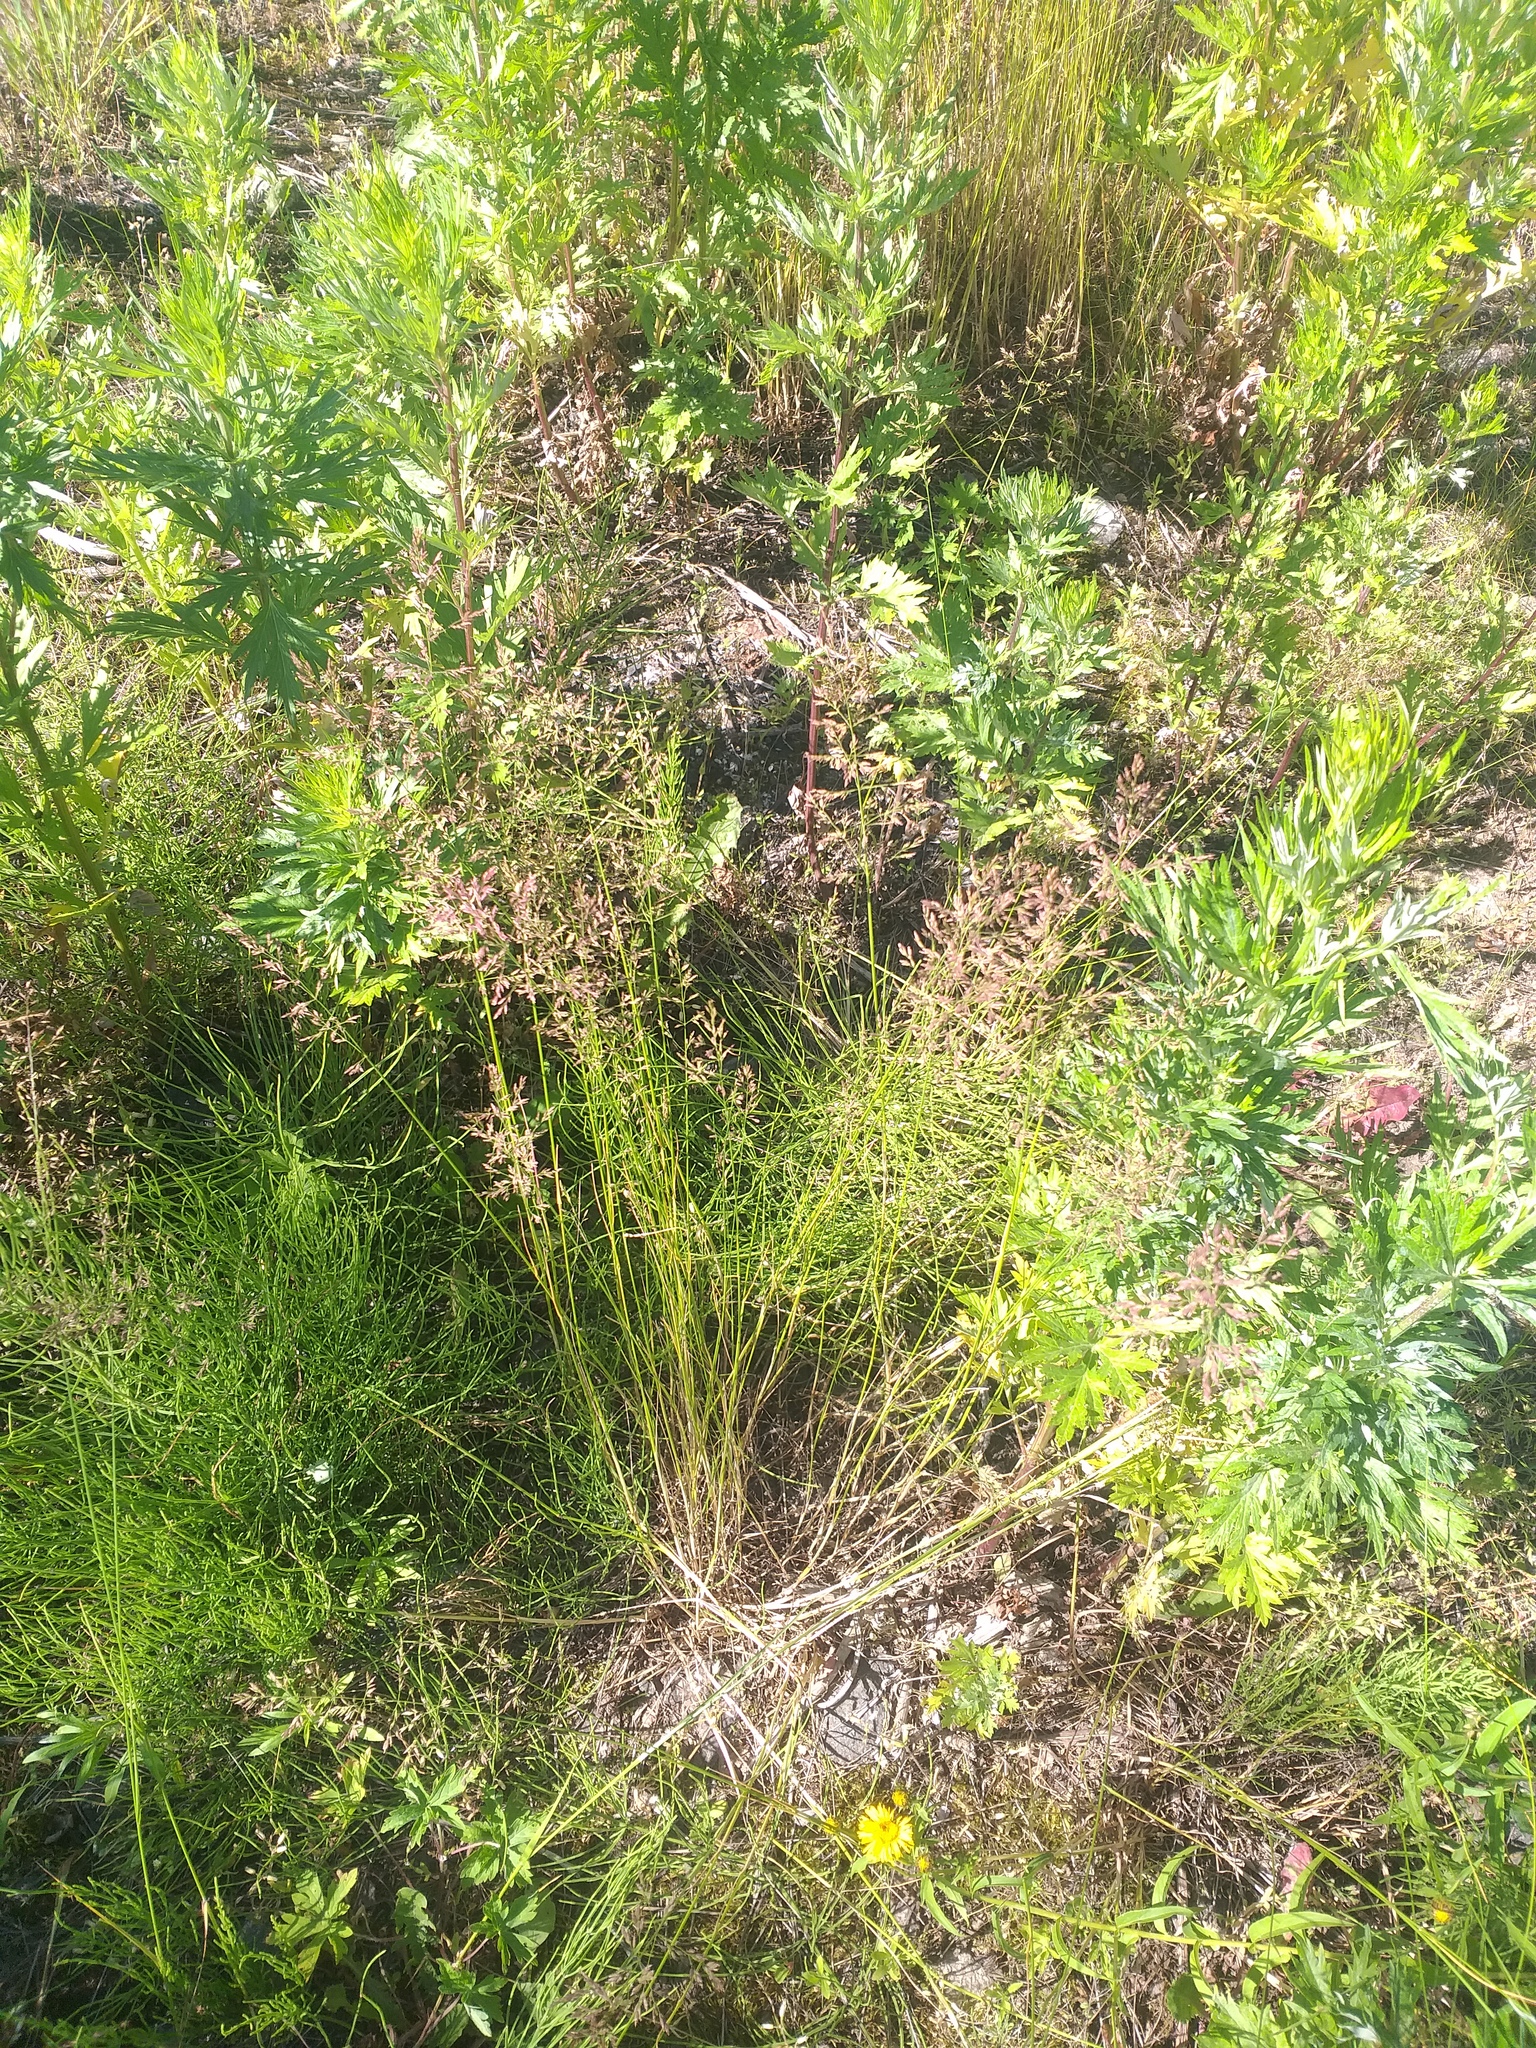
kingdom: Plantae
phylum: Tracheophyta
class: Liliopsida
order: Poales
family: Poaceae
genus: Poa
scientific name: Poa palustris
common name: Swamp meadow-grass
